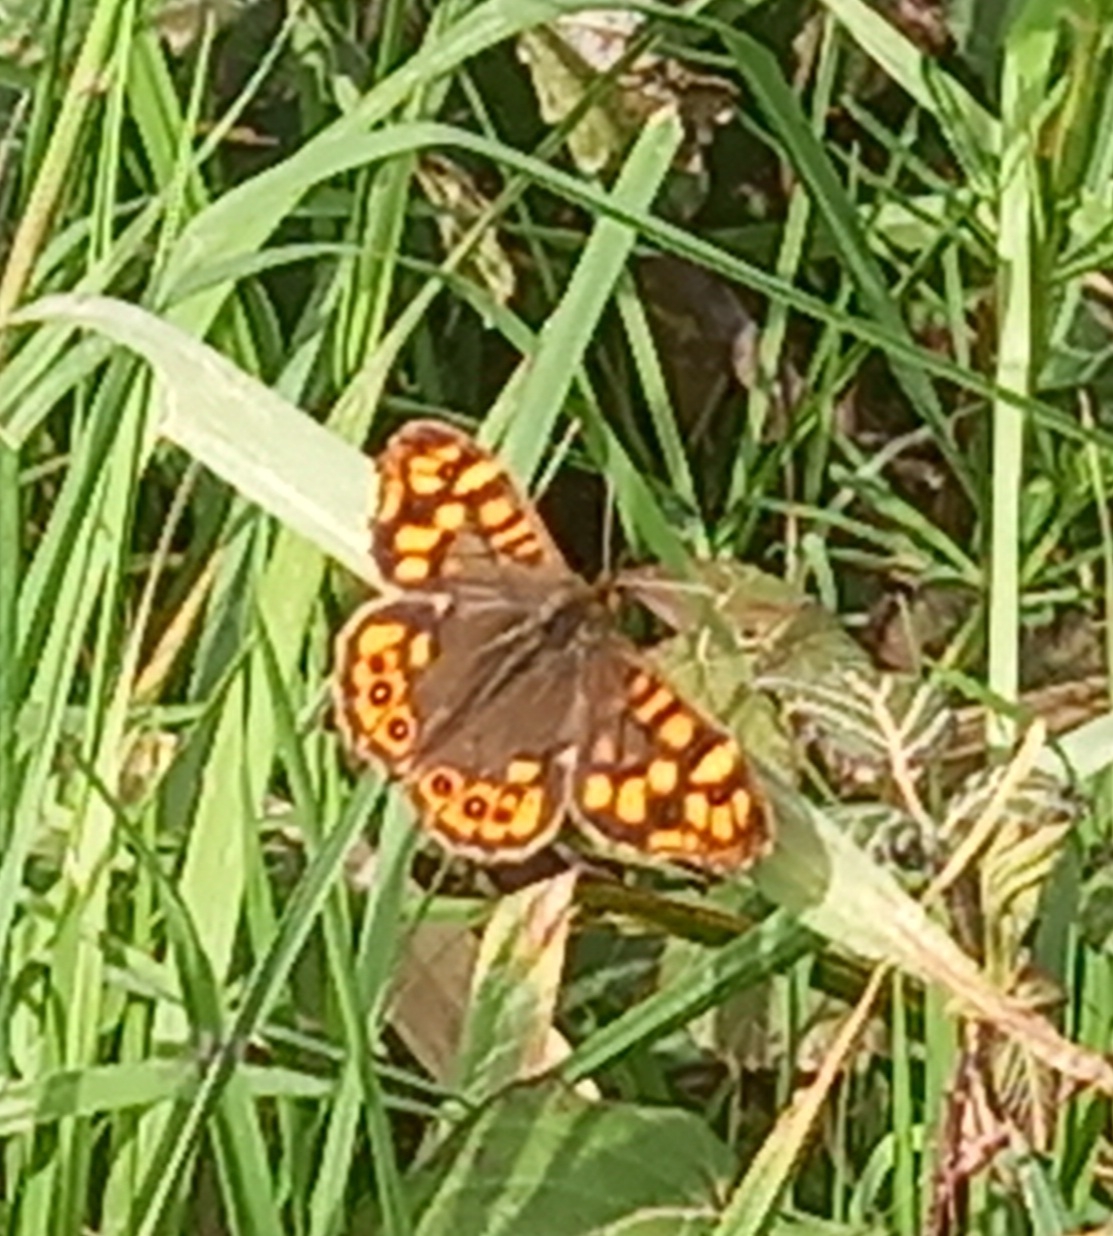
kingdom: Animalia
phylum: Arthropoda
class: Insecta
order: Lepidoptera
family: Nymphalidae
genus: Pararge
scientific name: Pararge aegeria
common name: Speckled wood
